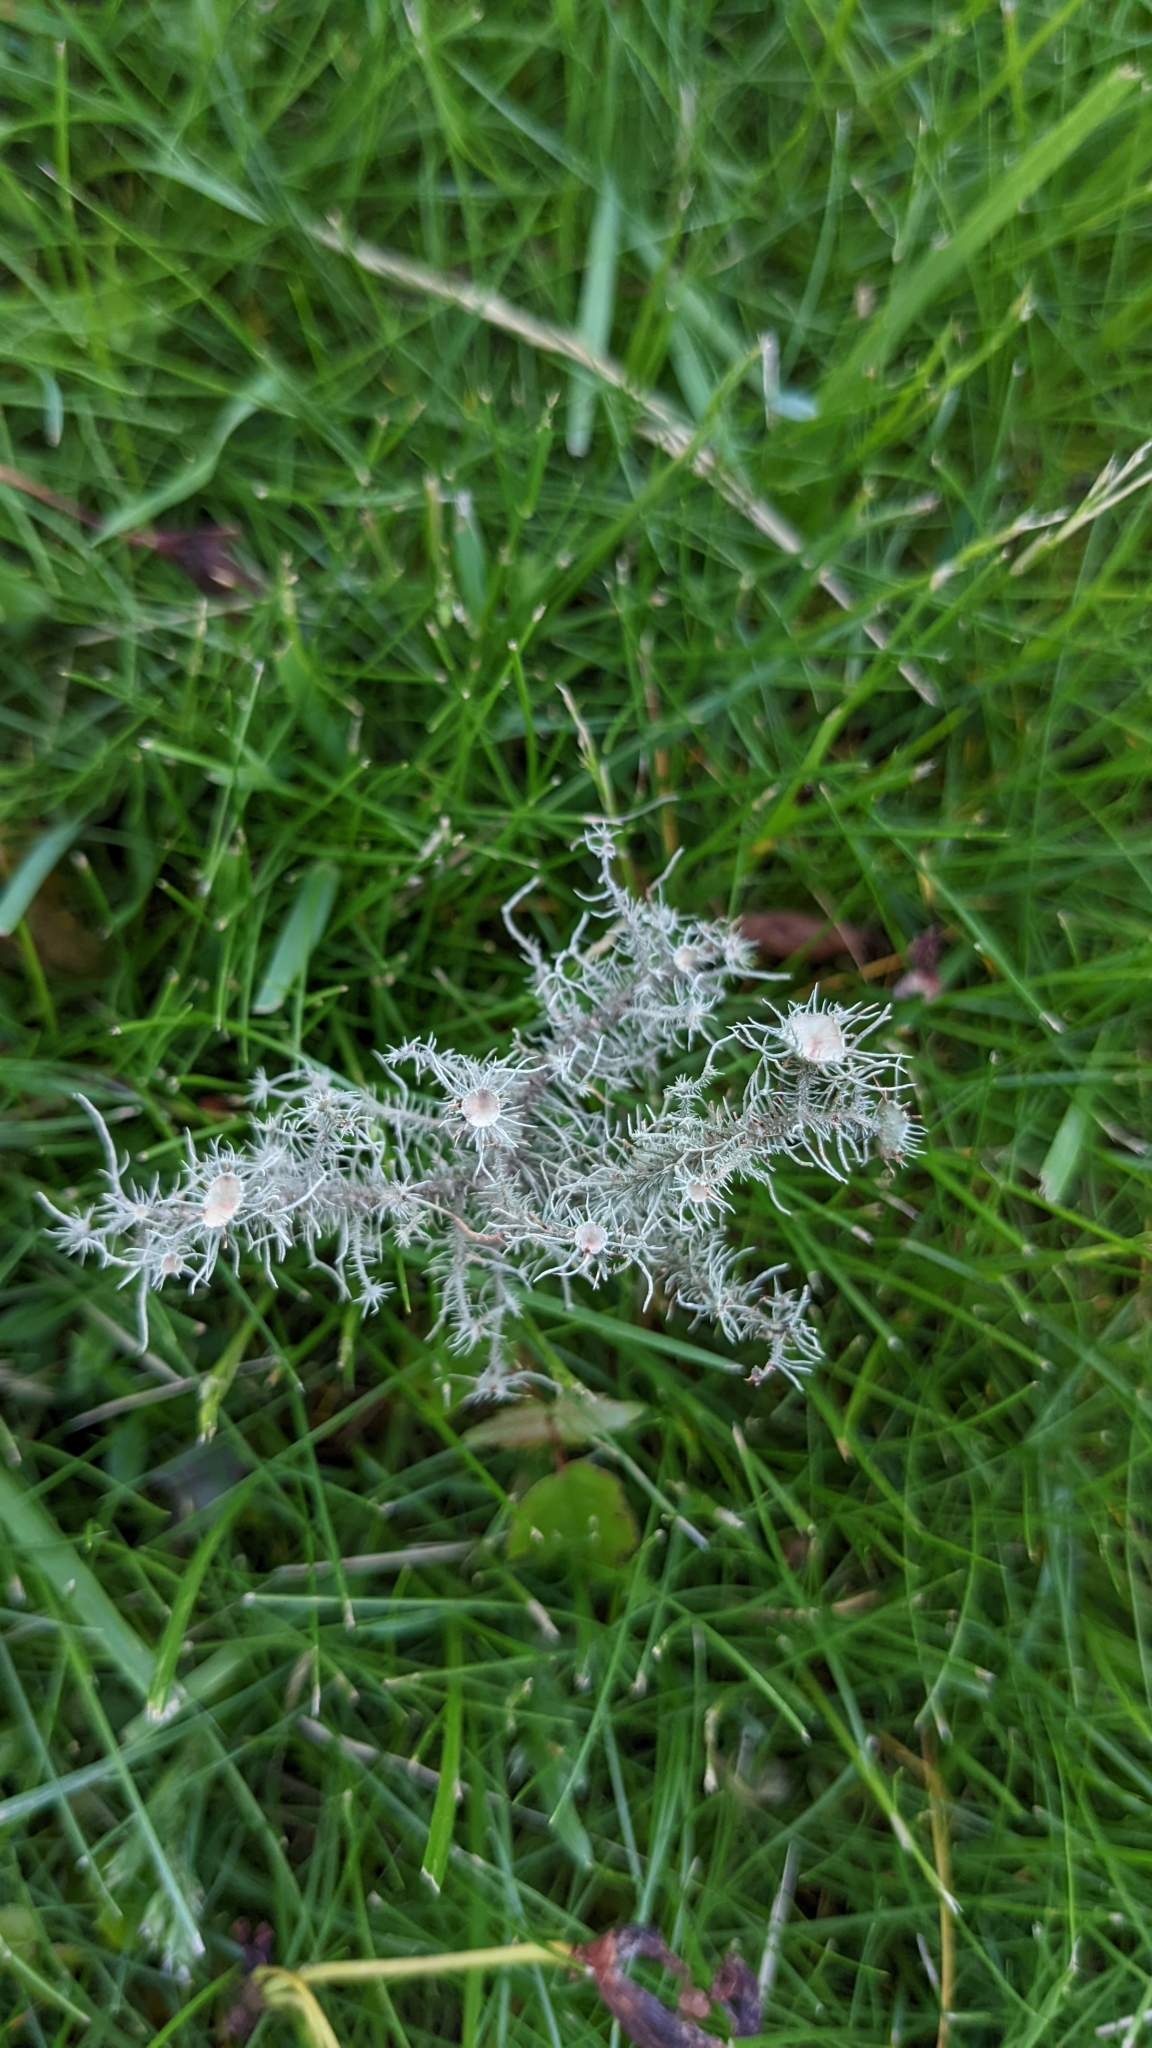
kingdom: Fungi
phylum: Ascomycota
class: Lecanoromycetes
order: Lecanorales
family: Parmeliaceae
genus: Usnea
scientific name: Usnea strigosa
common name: Bushy beard lichen
